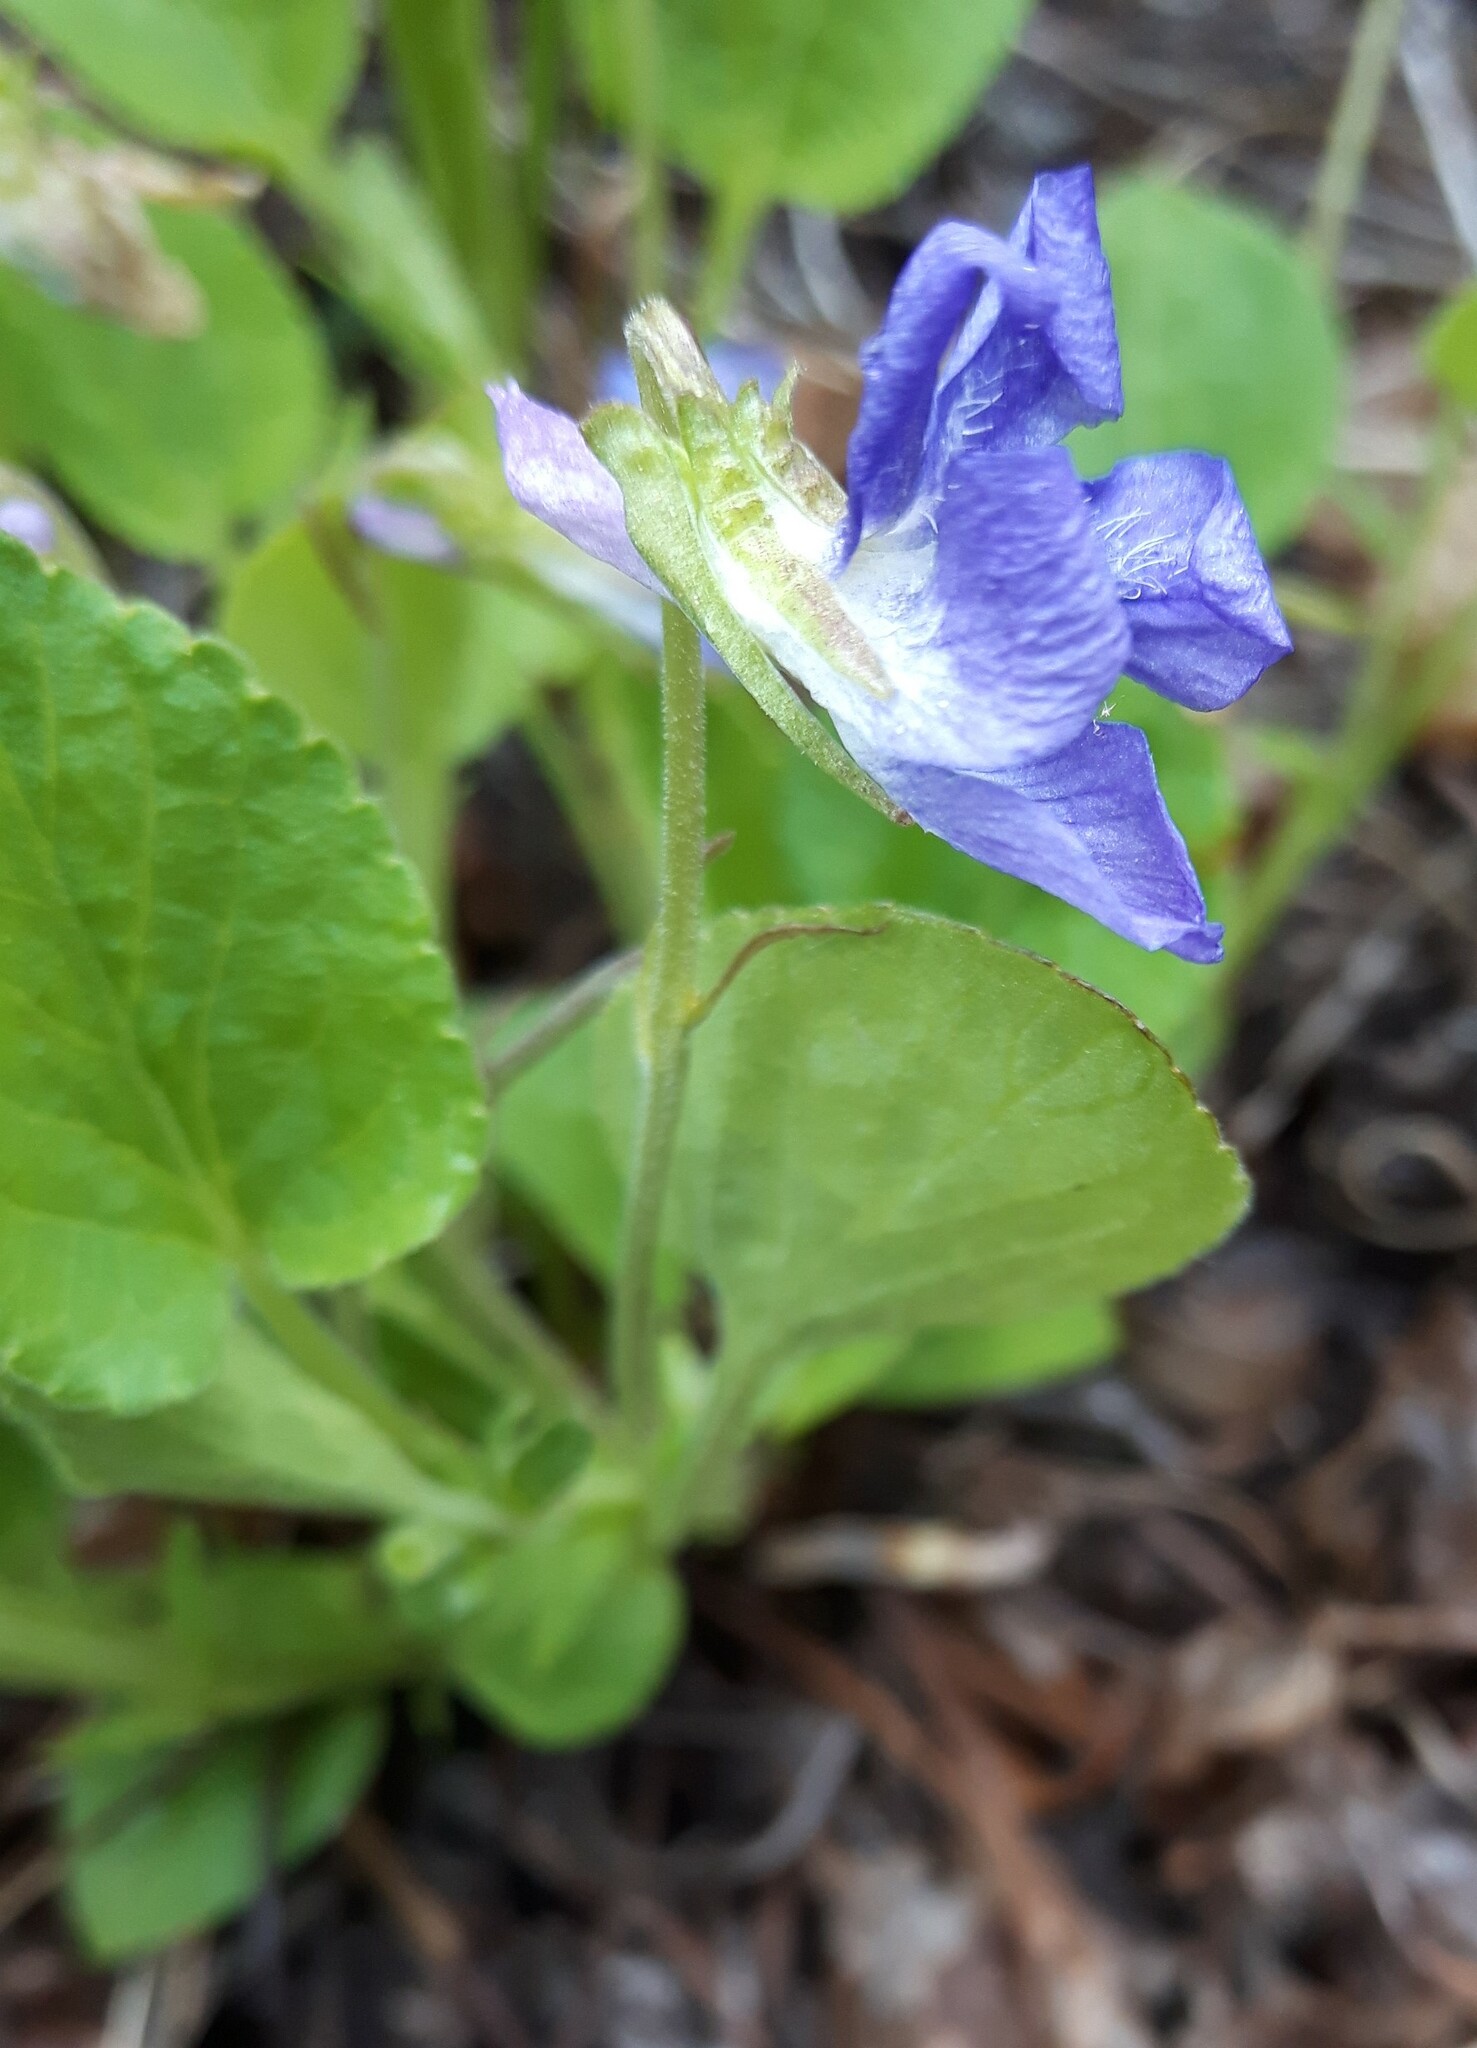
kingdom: Plantae
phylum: Tracheophyta
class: Magnoliopsida
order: Malpighiales
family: Violaceae
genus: Viola
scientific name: Viola adunca
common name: Sand violet
